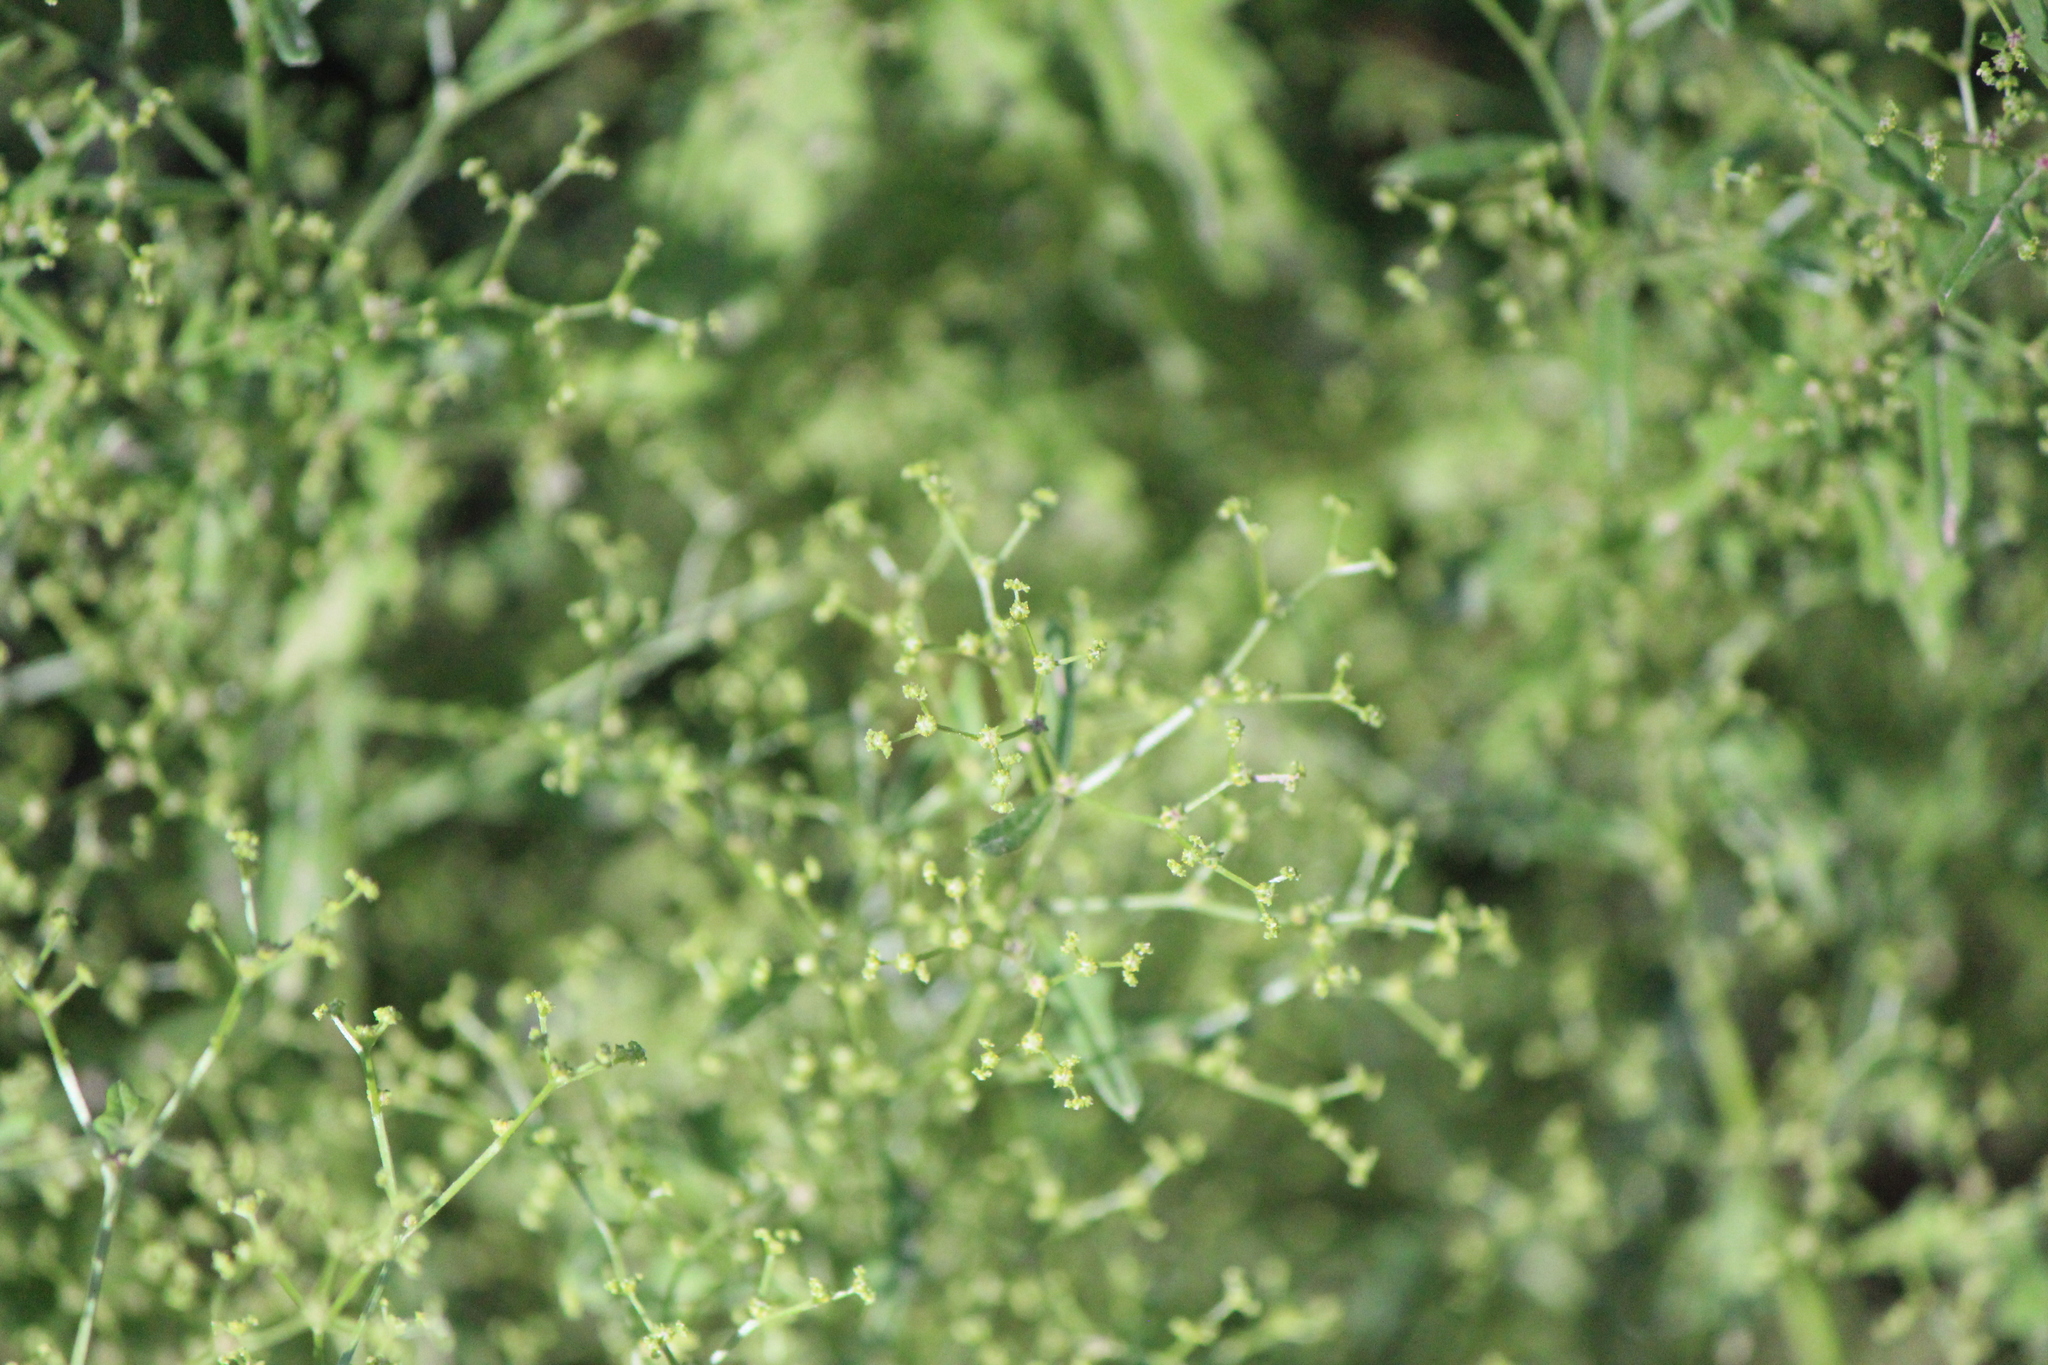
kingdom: Plantae
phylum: Tracheophyta
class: Magnoliopsida
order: Caryophyllales
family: Amaranthaceae
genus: Dysphania
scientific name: Dysphania incisa
